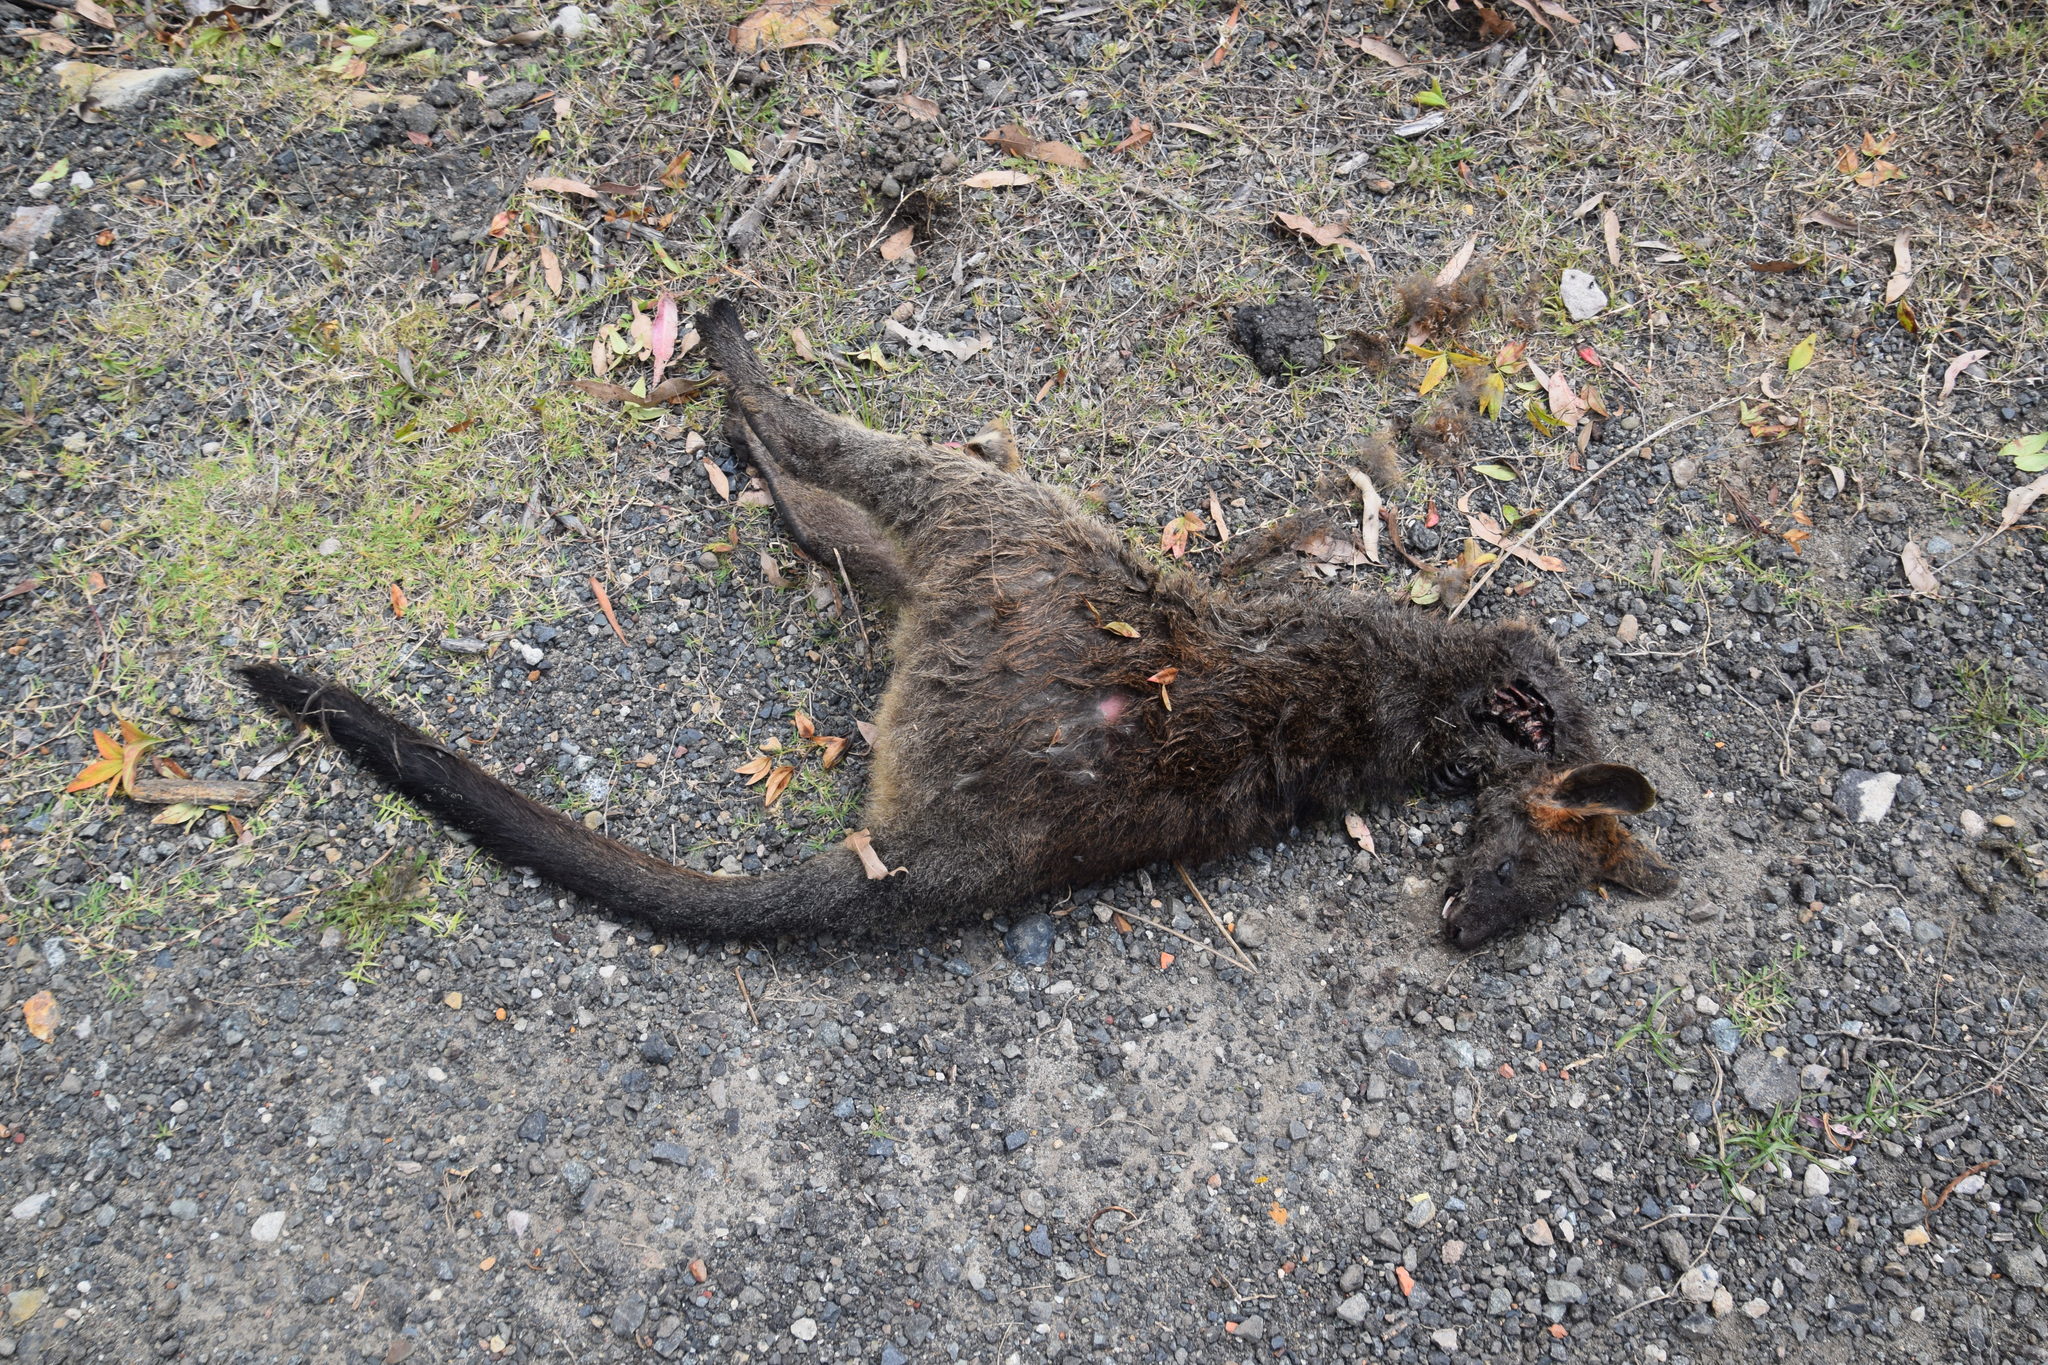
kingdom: Animalia
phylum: Chordata
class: Mammalia
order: Diprotodontia
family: Macropodidae
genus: Wallabia
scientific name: Wallabia bicolor
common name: Swamp wallaby
